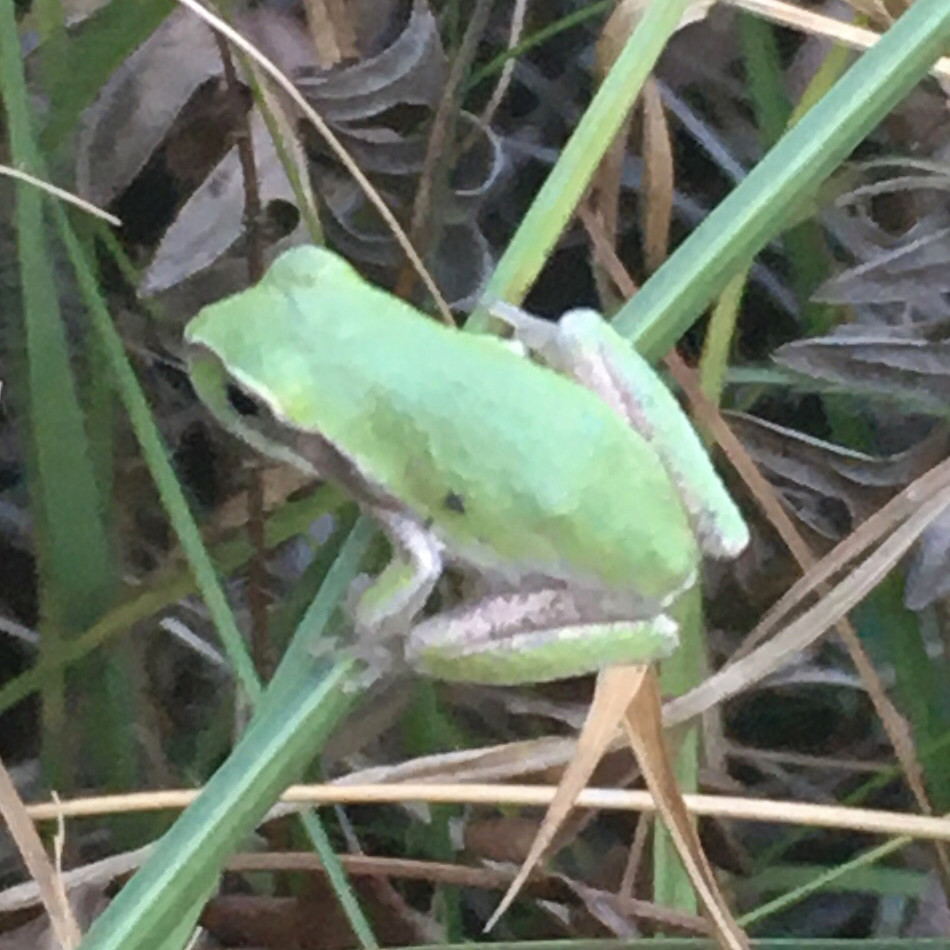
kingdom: Animalia
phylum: Chordata
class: Amphibia
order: Anura
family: Hylidae
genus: Hyla
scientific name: Hyla femoralis
